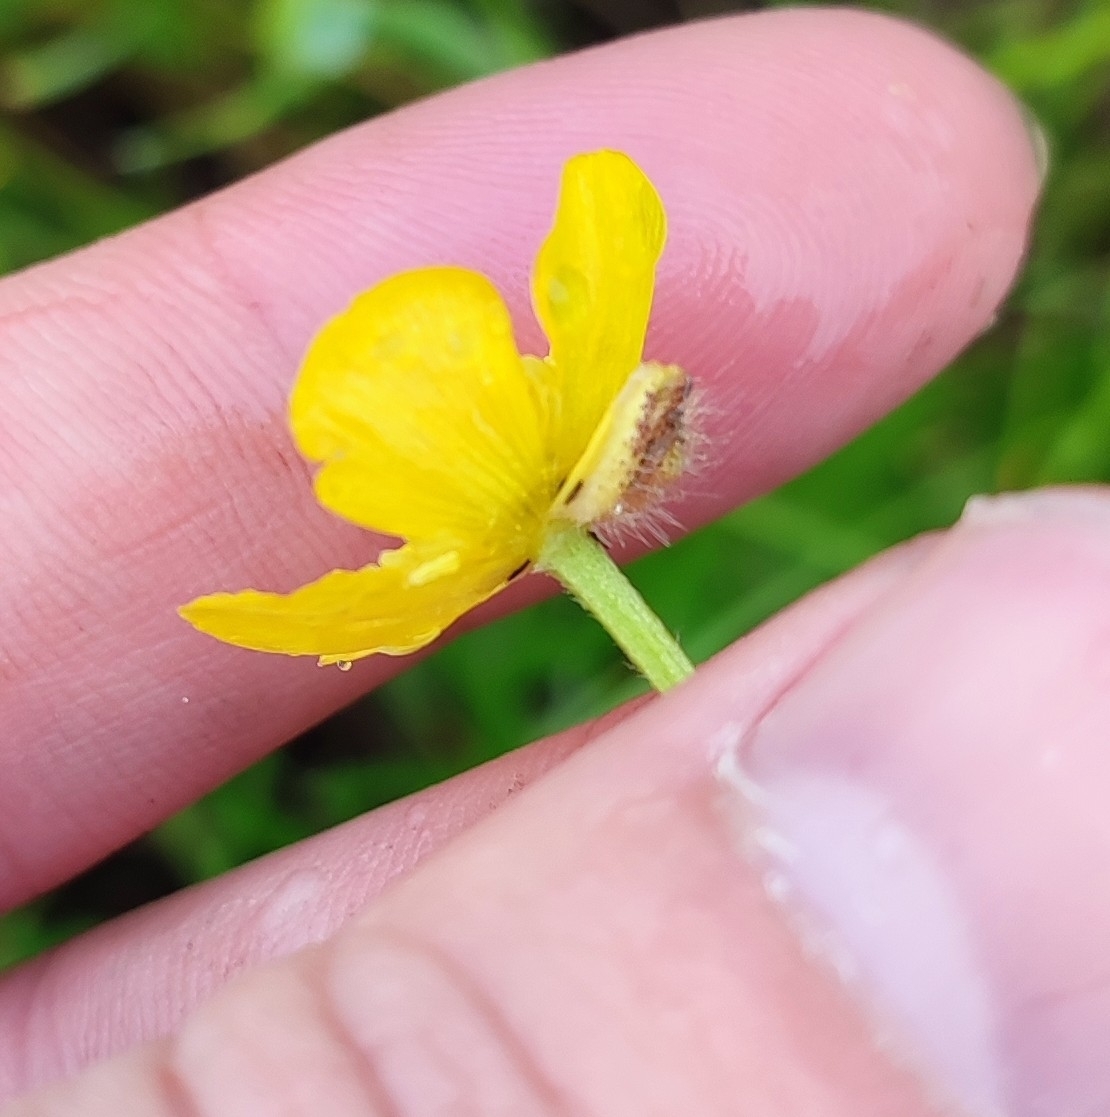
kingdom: Plantae
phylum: Tracheophyta
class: Magnoliopsida
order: Ranunculales
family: Ranunculaceae
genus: Ranunculus
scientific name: Ranunculus polyanthemos
